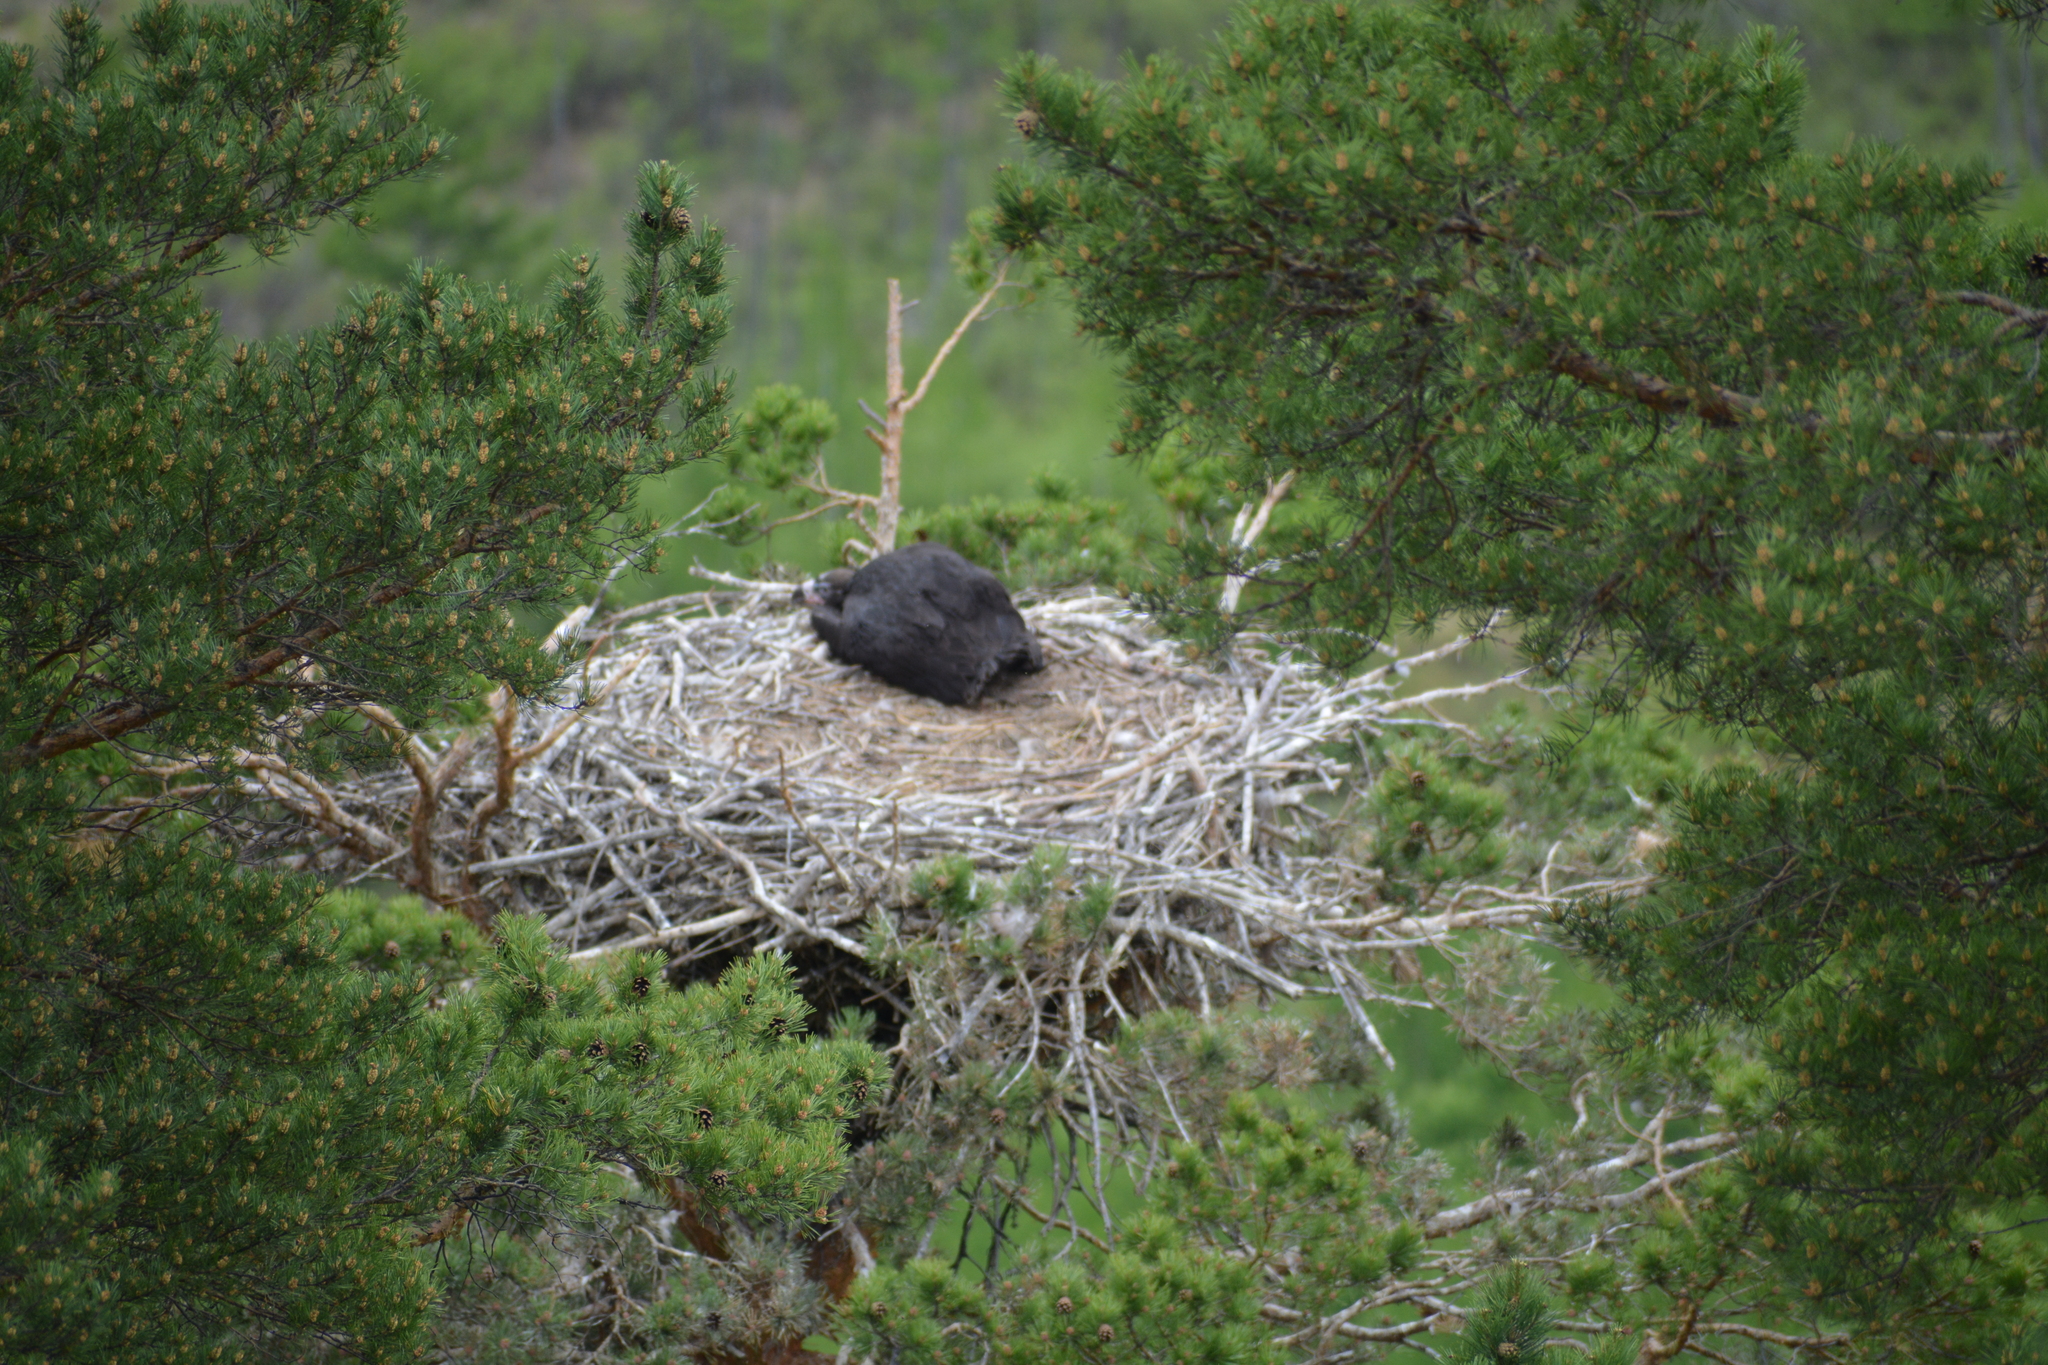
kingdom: Animalia
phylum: Chordata
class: Aves
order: Accipitriformes
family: Accipitridae
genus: Aegypius
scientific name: Aegypius monachus
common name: Cinereous vulture
